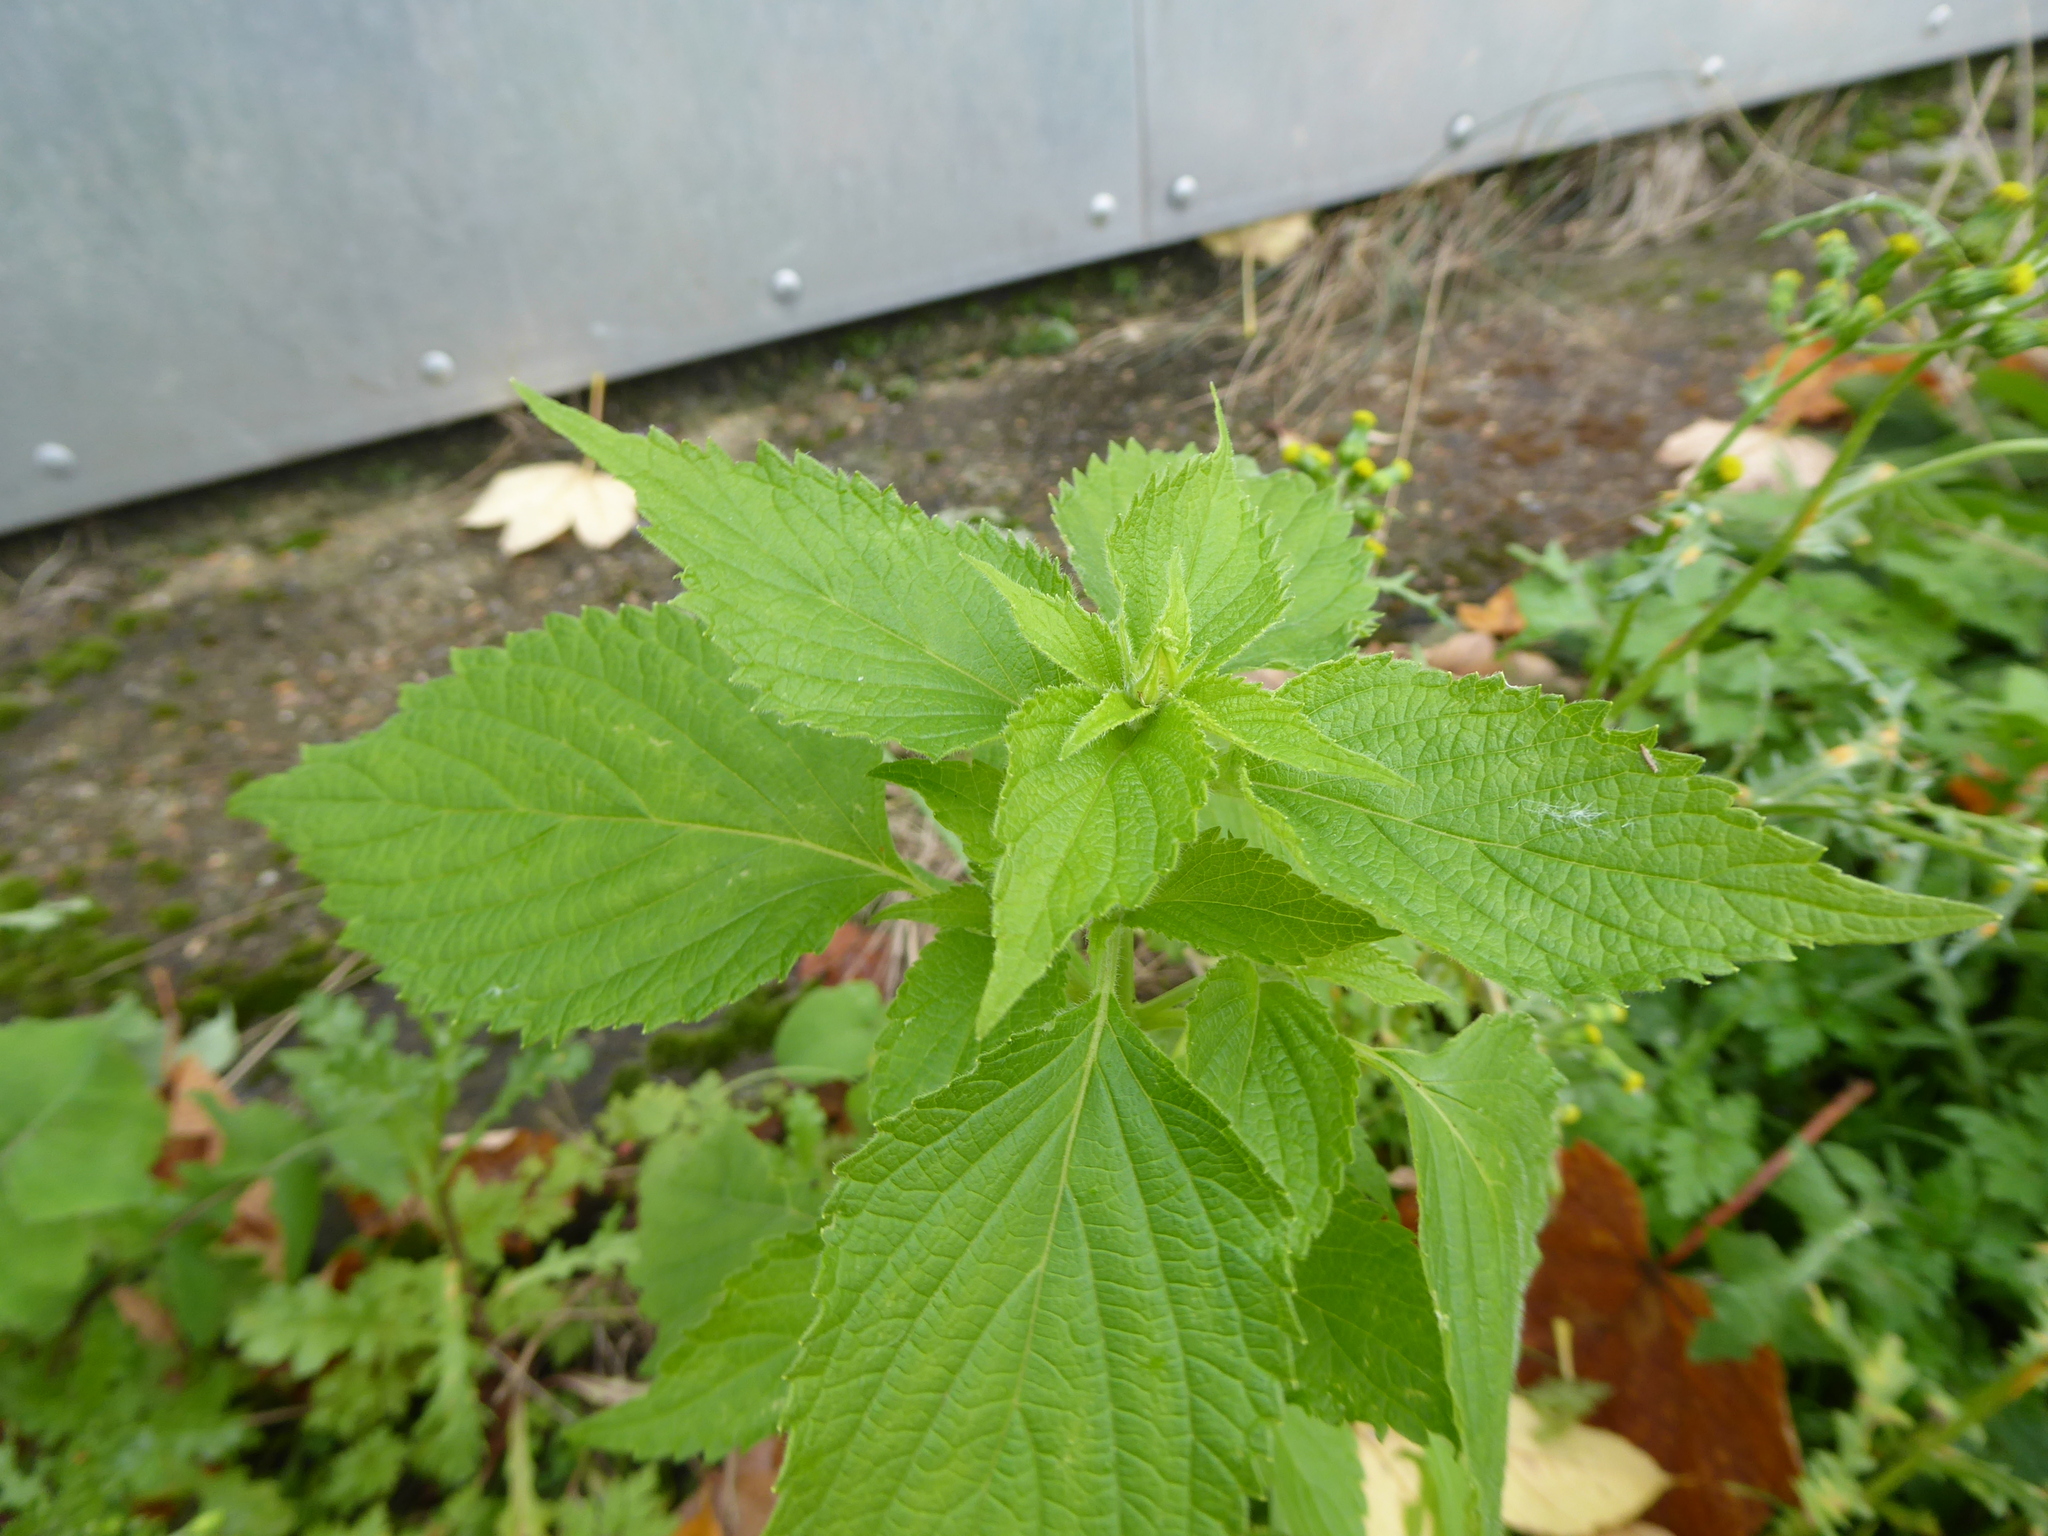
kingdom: Plantae
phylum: Tracheophyta
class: Magnoliopsida
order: Lamiales
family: Lamiaceae
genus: Salvia
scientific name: Salvia hispanica
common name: Chia
